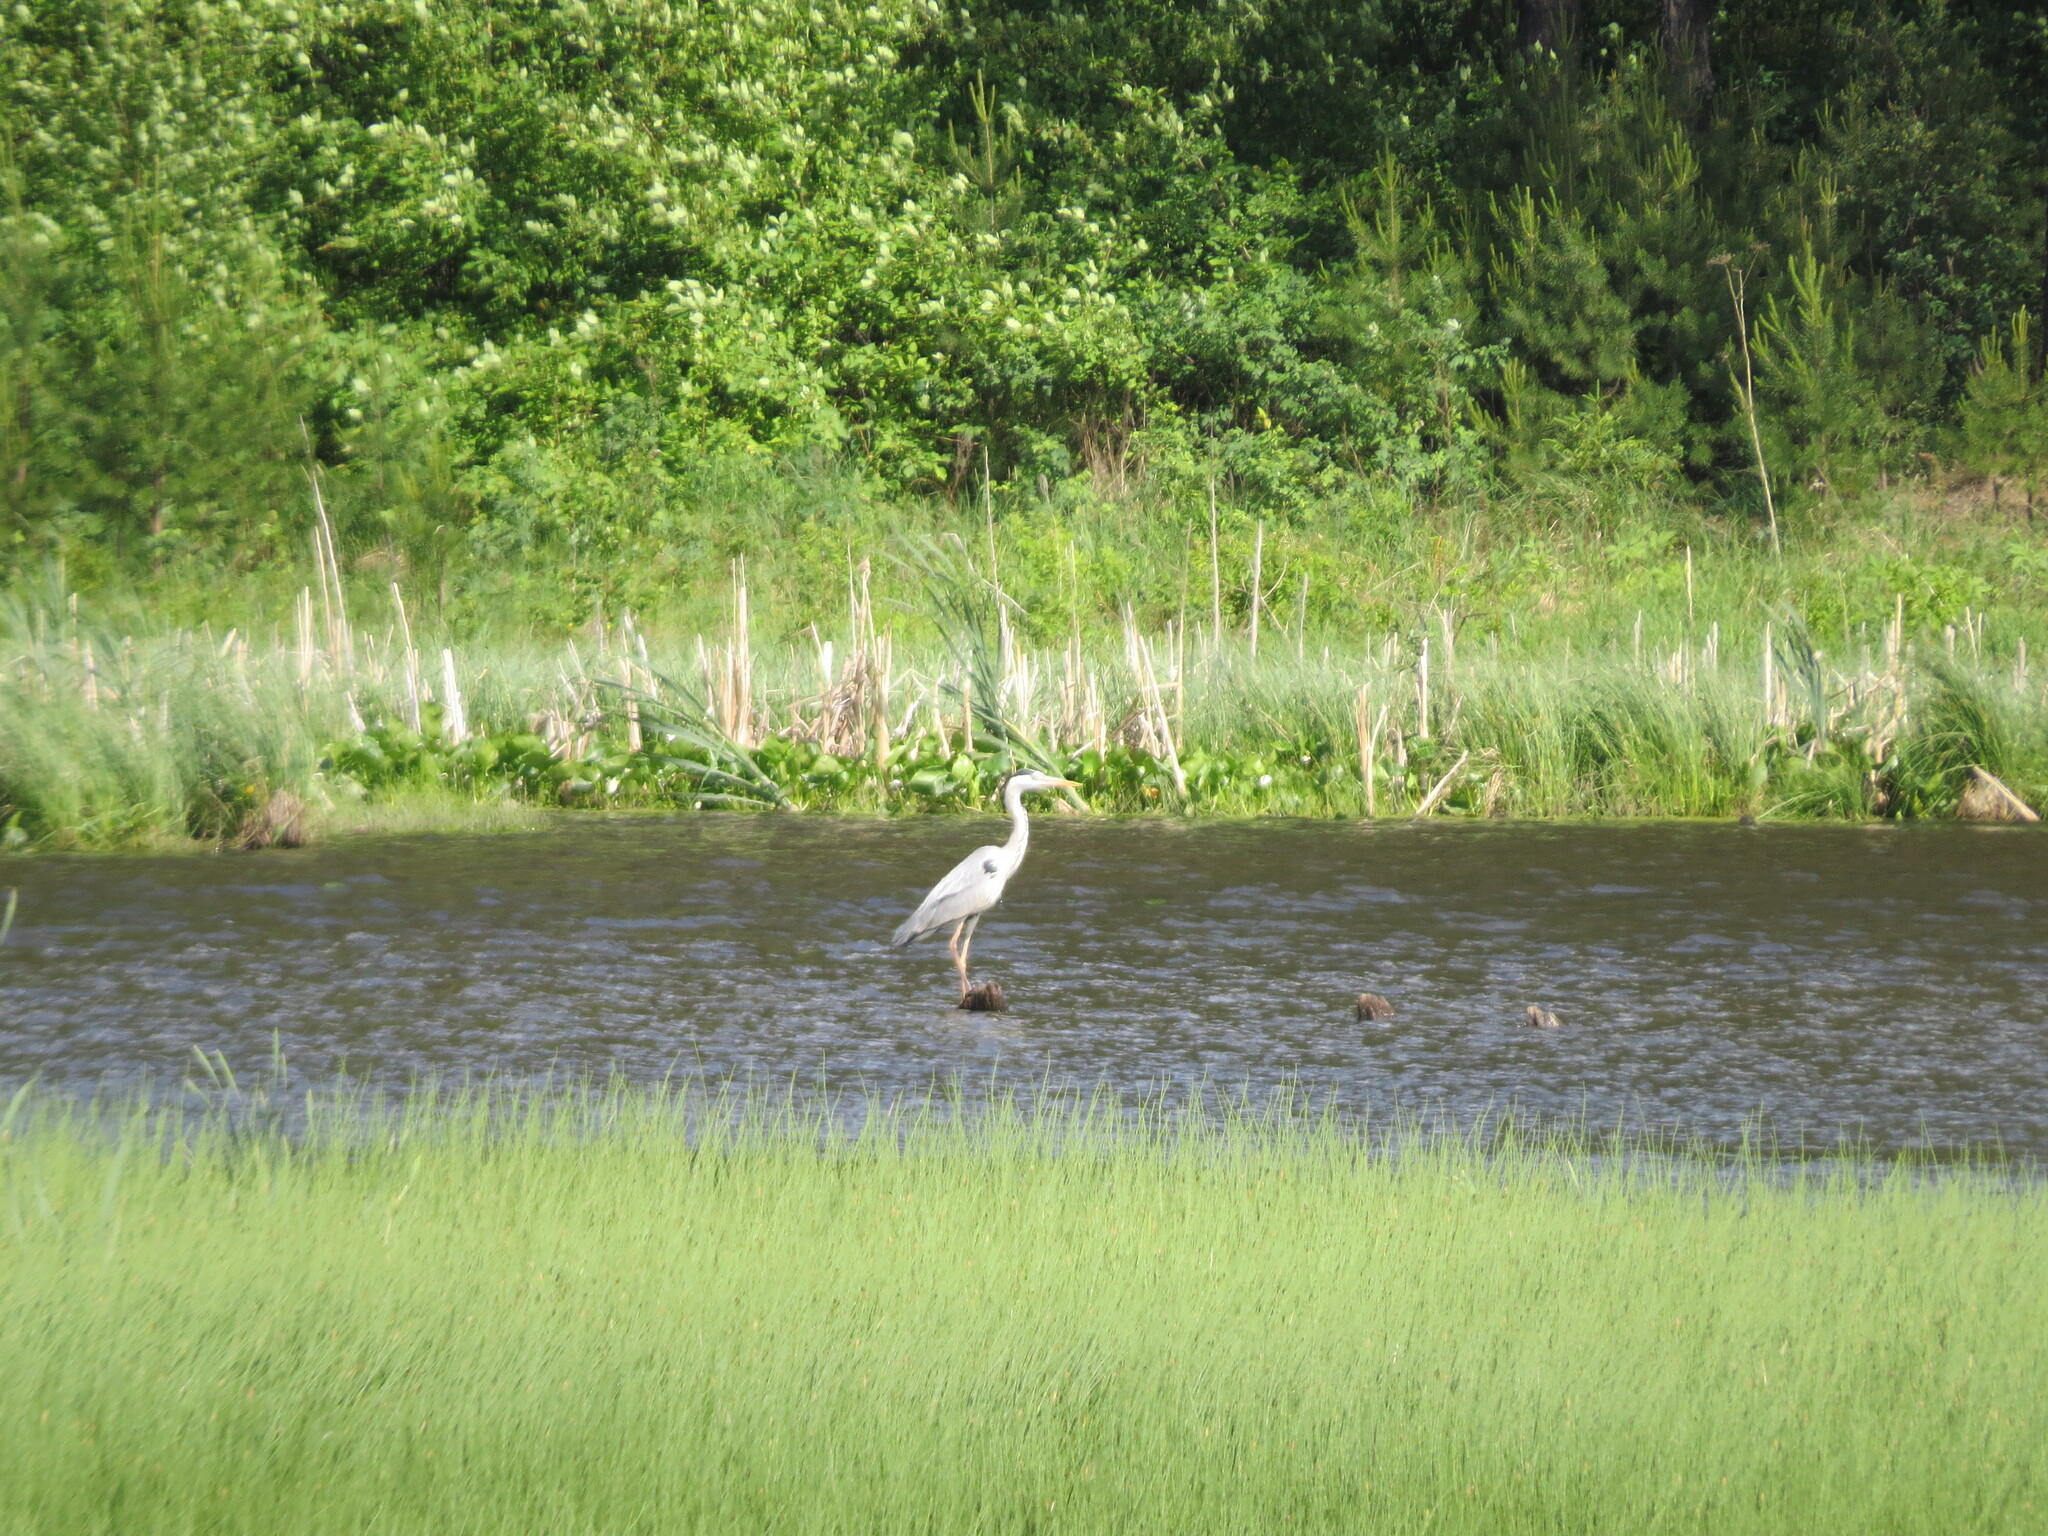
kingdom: Animalia
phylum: Chordata
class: Aves
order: Pelecaniformes
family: Ardeidae
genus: Ardea
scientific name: Ardea cinerea
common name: Grey heron
